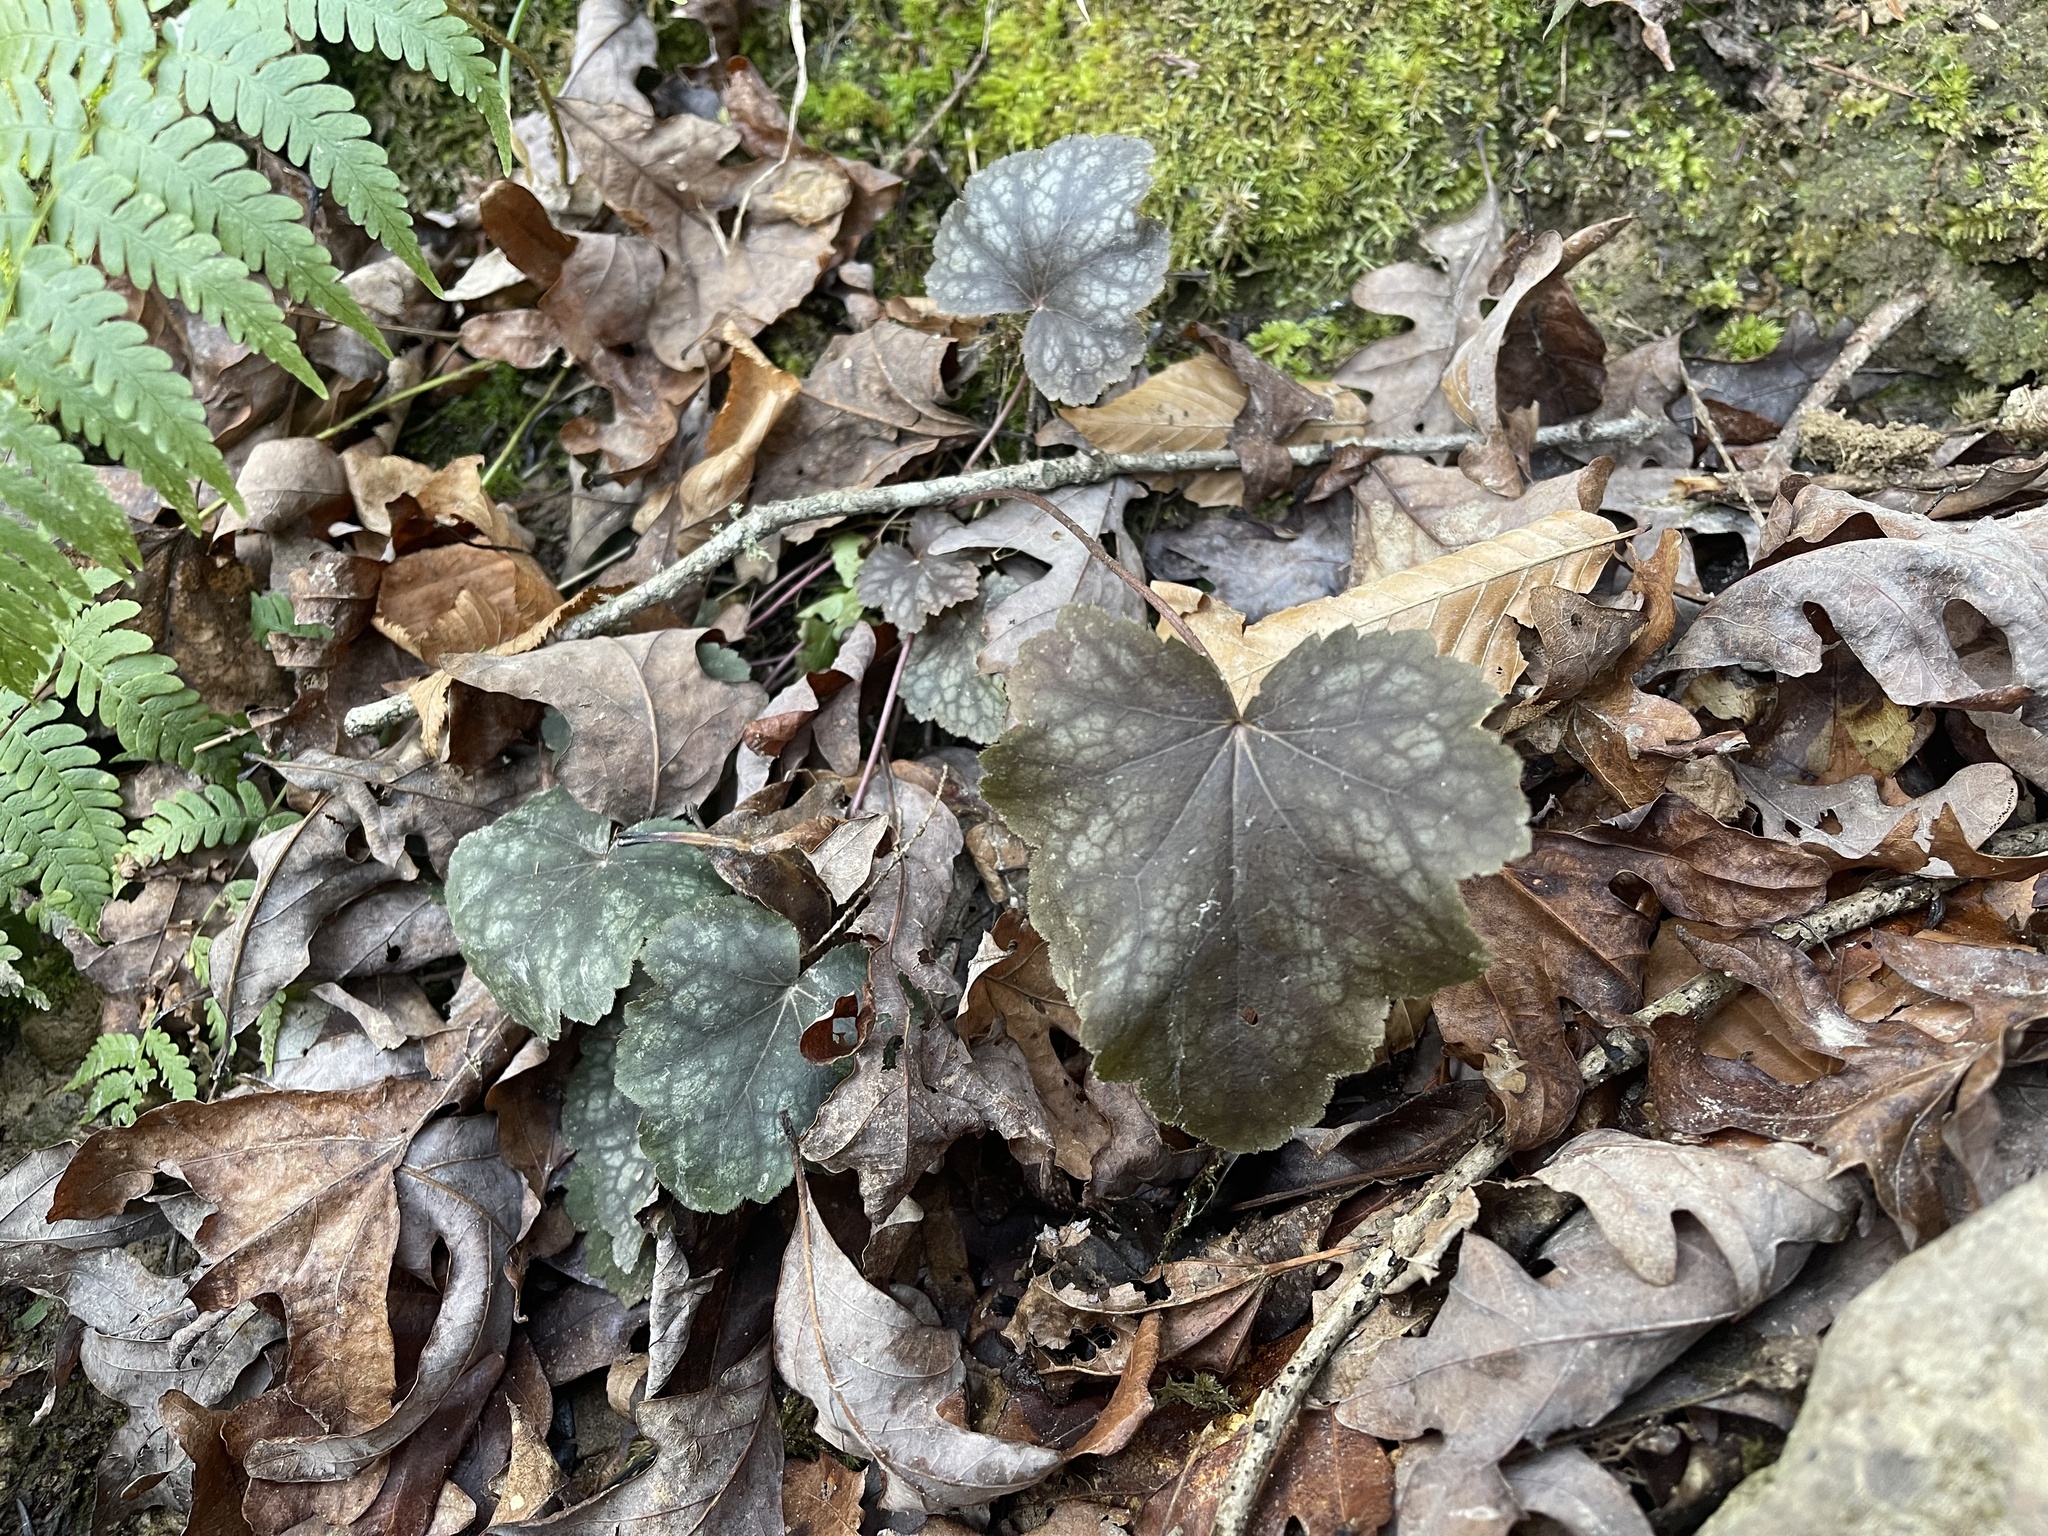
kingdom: Plantae
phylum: Tracheophyta
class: Magnoliopsida
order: Saxifragales
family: Saxifragaceae
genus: Heuchera
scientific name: Heuchera americana
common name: Alumroot
